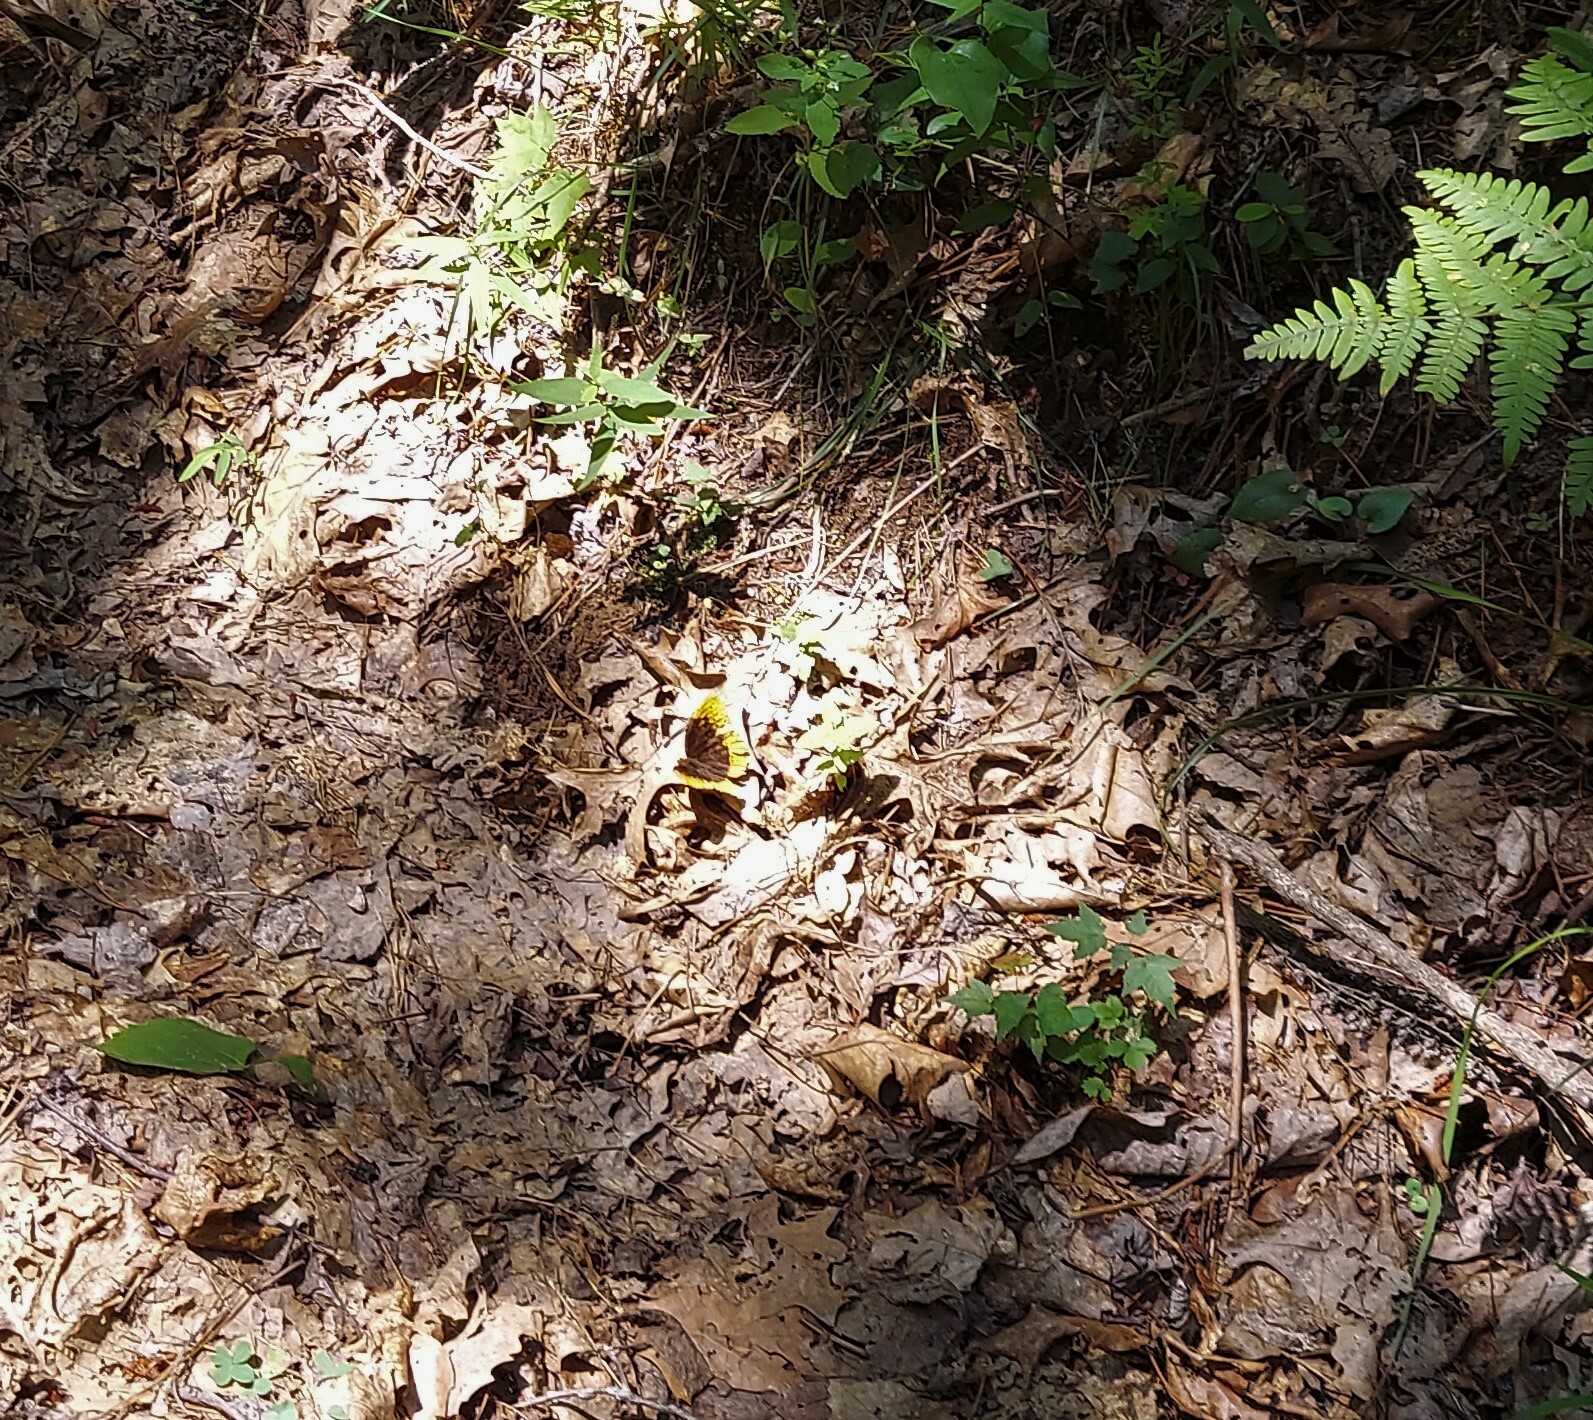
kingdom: Animalia
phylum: Arthropoda
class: Insecta
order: Lepidoptera
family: Nymphalidae
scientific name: Nymphalidae
